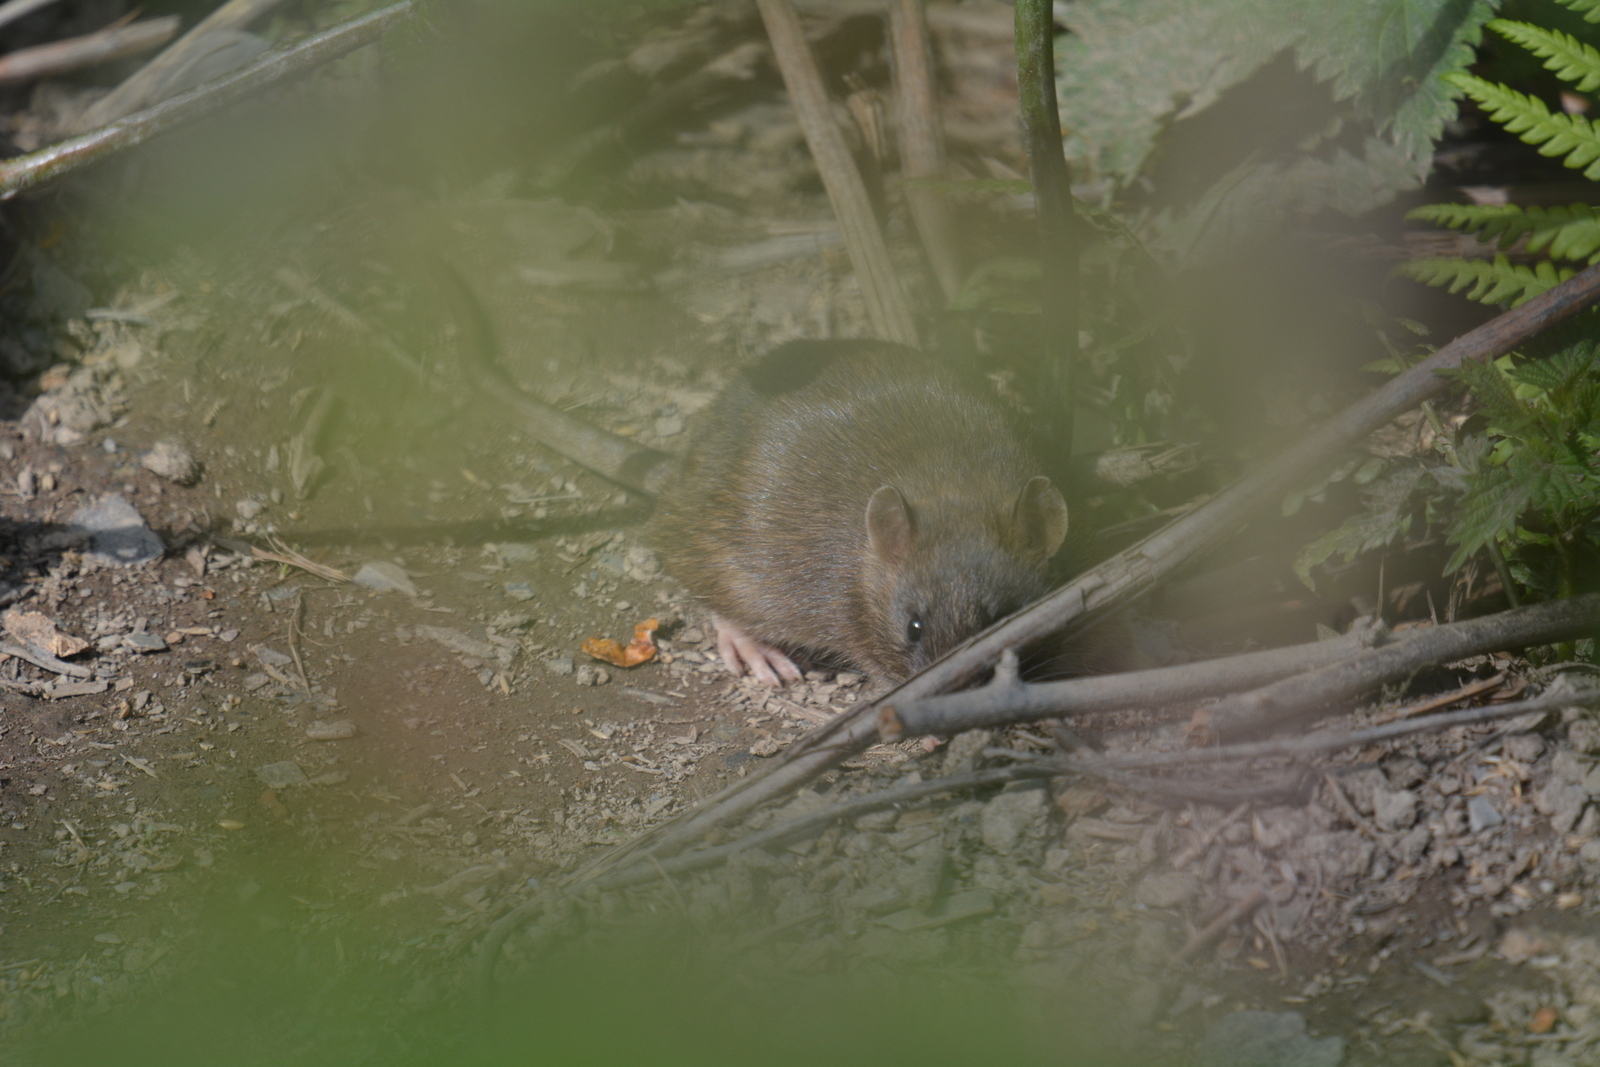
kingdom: Animalia
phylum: Chordata
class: Mammalia
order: Rodentia
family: Muridae
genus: Rattus
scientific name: Rattus norvegicus
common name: Brown rat
